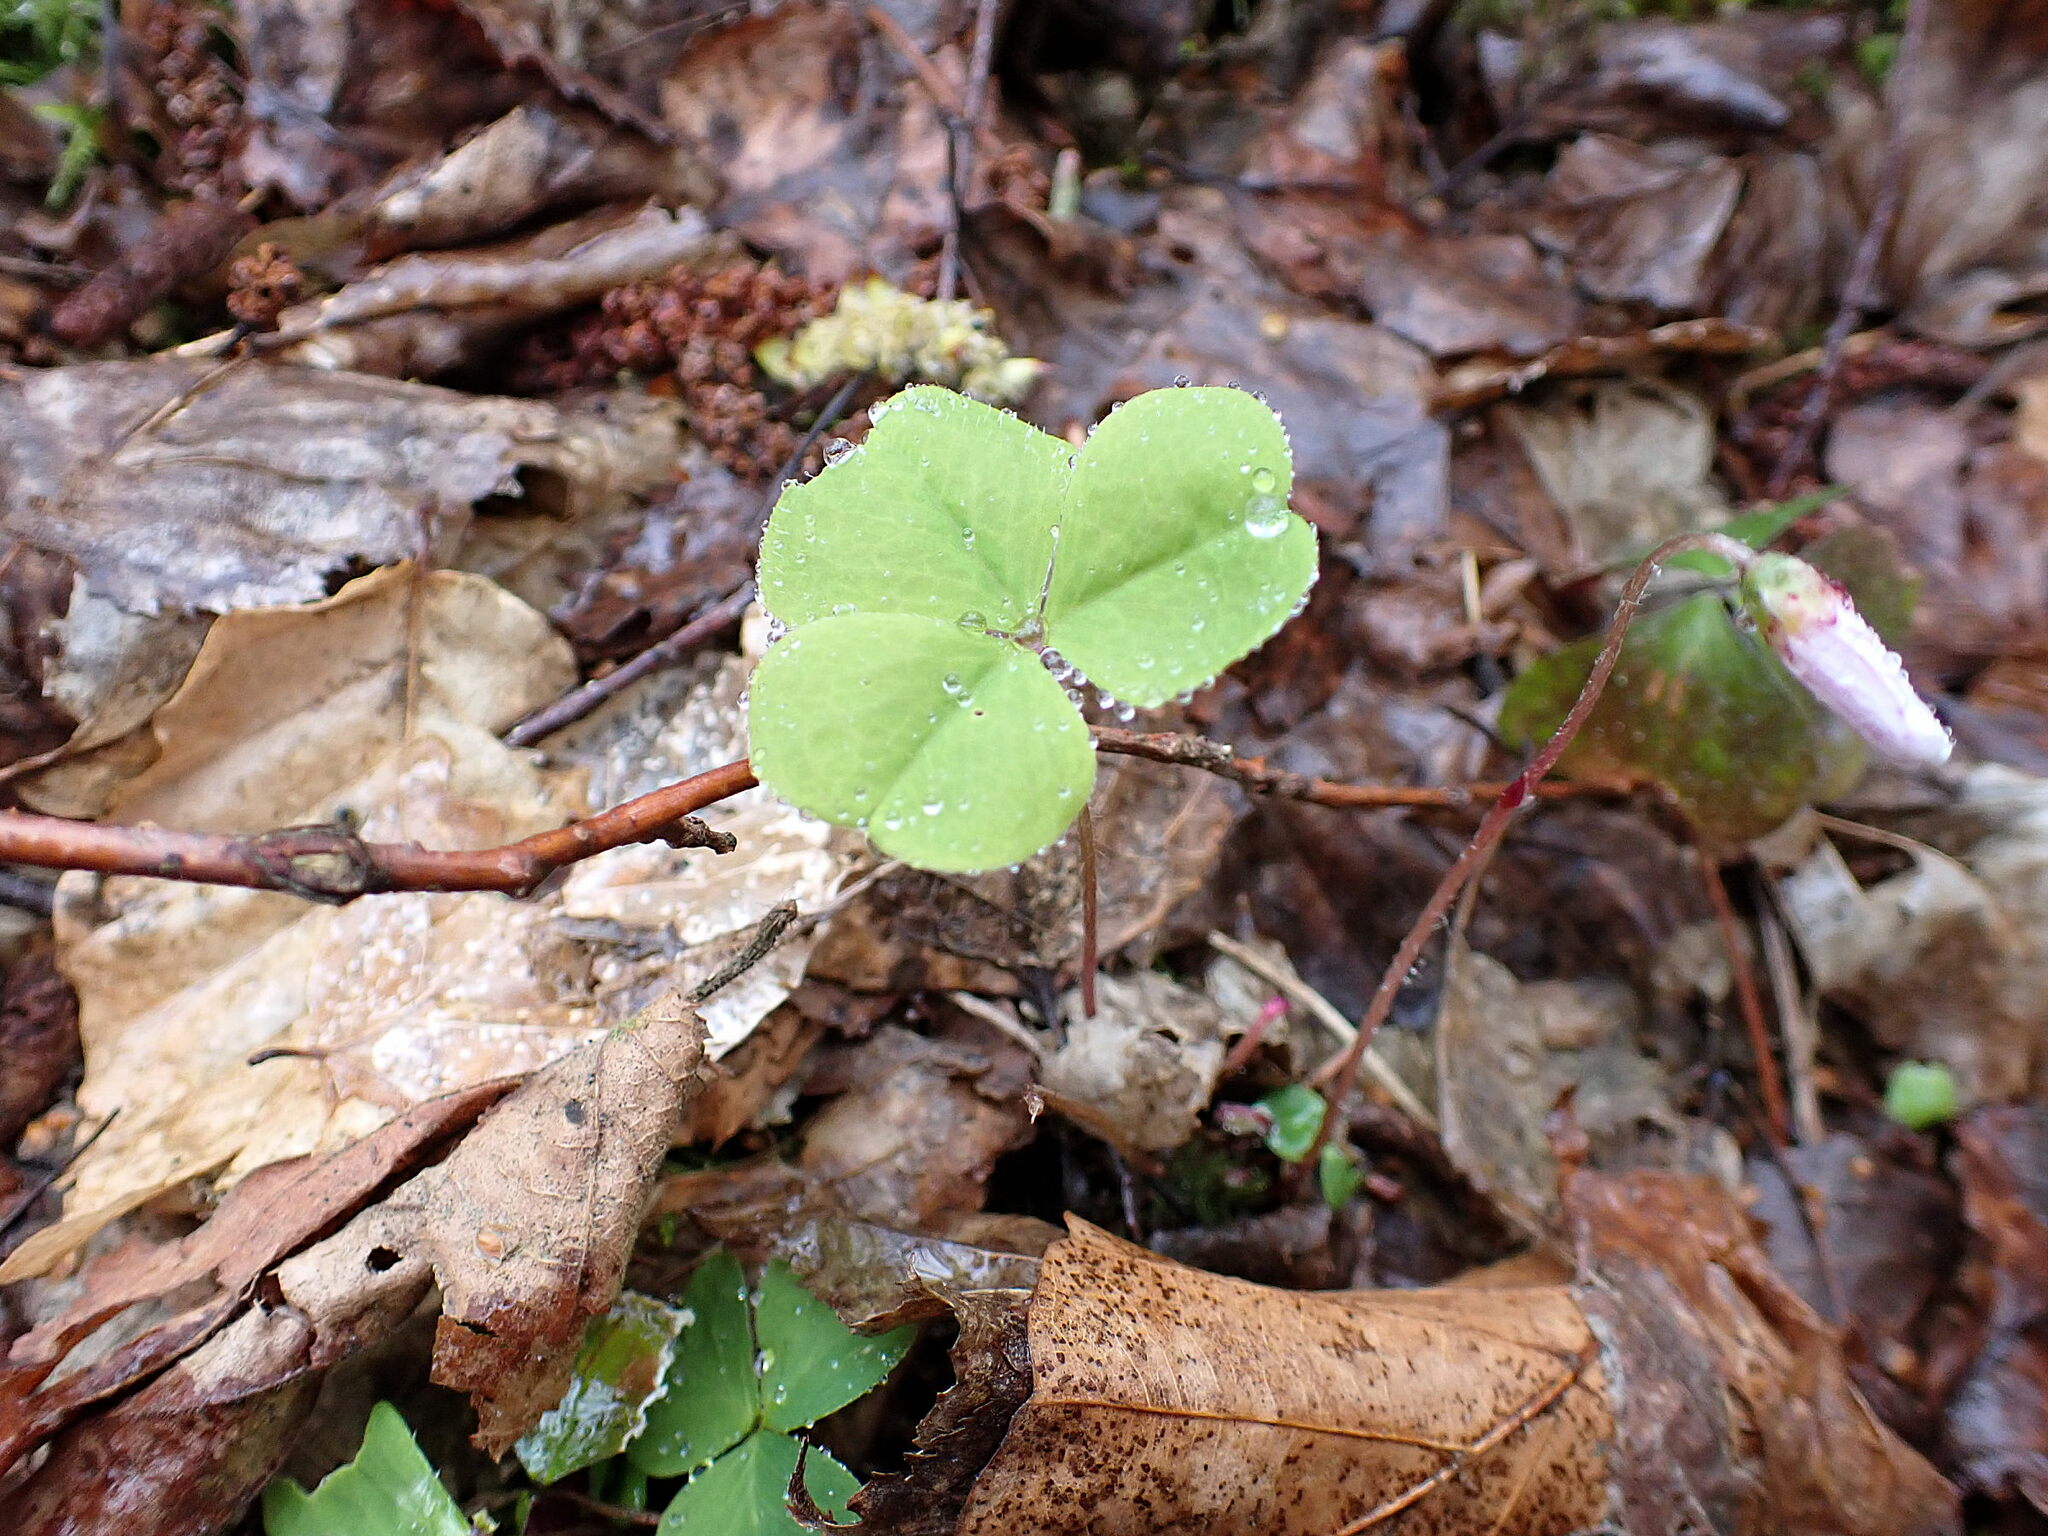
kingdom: Plantae
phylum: Tracheophyta
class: Magnoliopsida
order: Oxalidales
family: Oxalidaceae
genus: Oxalis
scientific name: Oxalis acetosella
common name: Wood-sorrel
